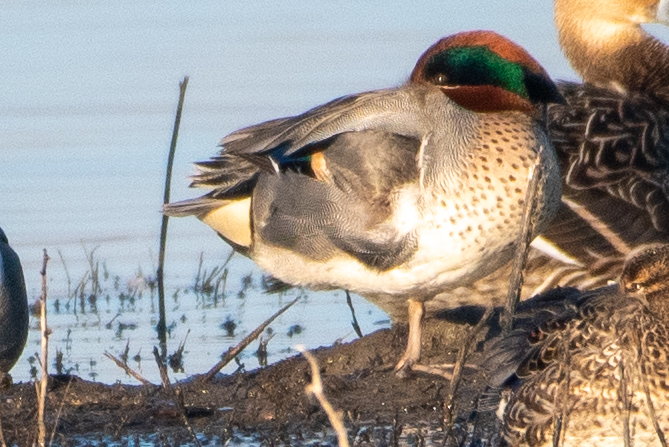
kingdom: Animalia
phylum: Chordata
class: Aves
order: Anseriformes
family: Anatidae
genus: Anas
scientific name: Anas crecca
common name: Eurasian teal
